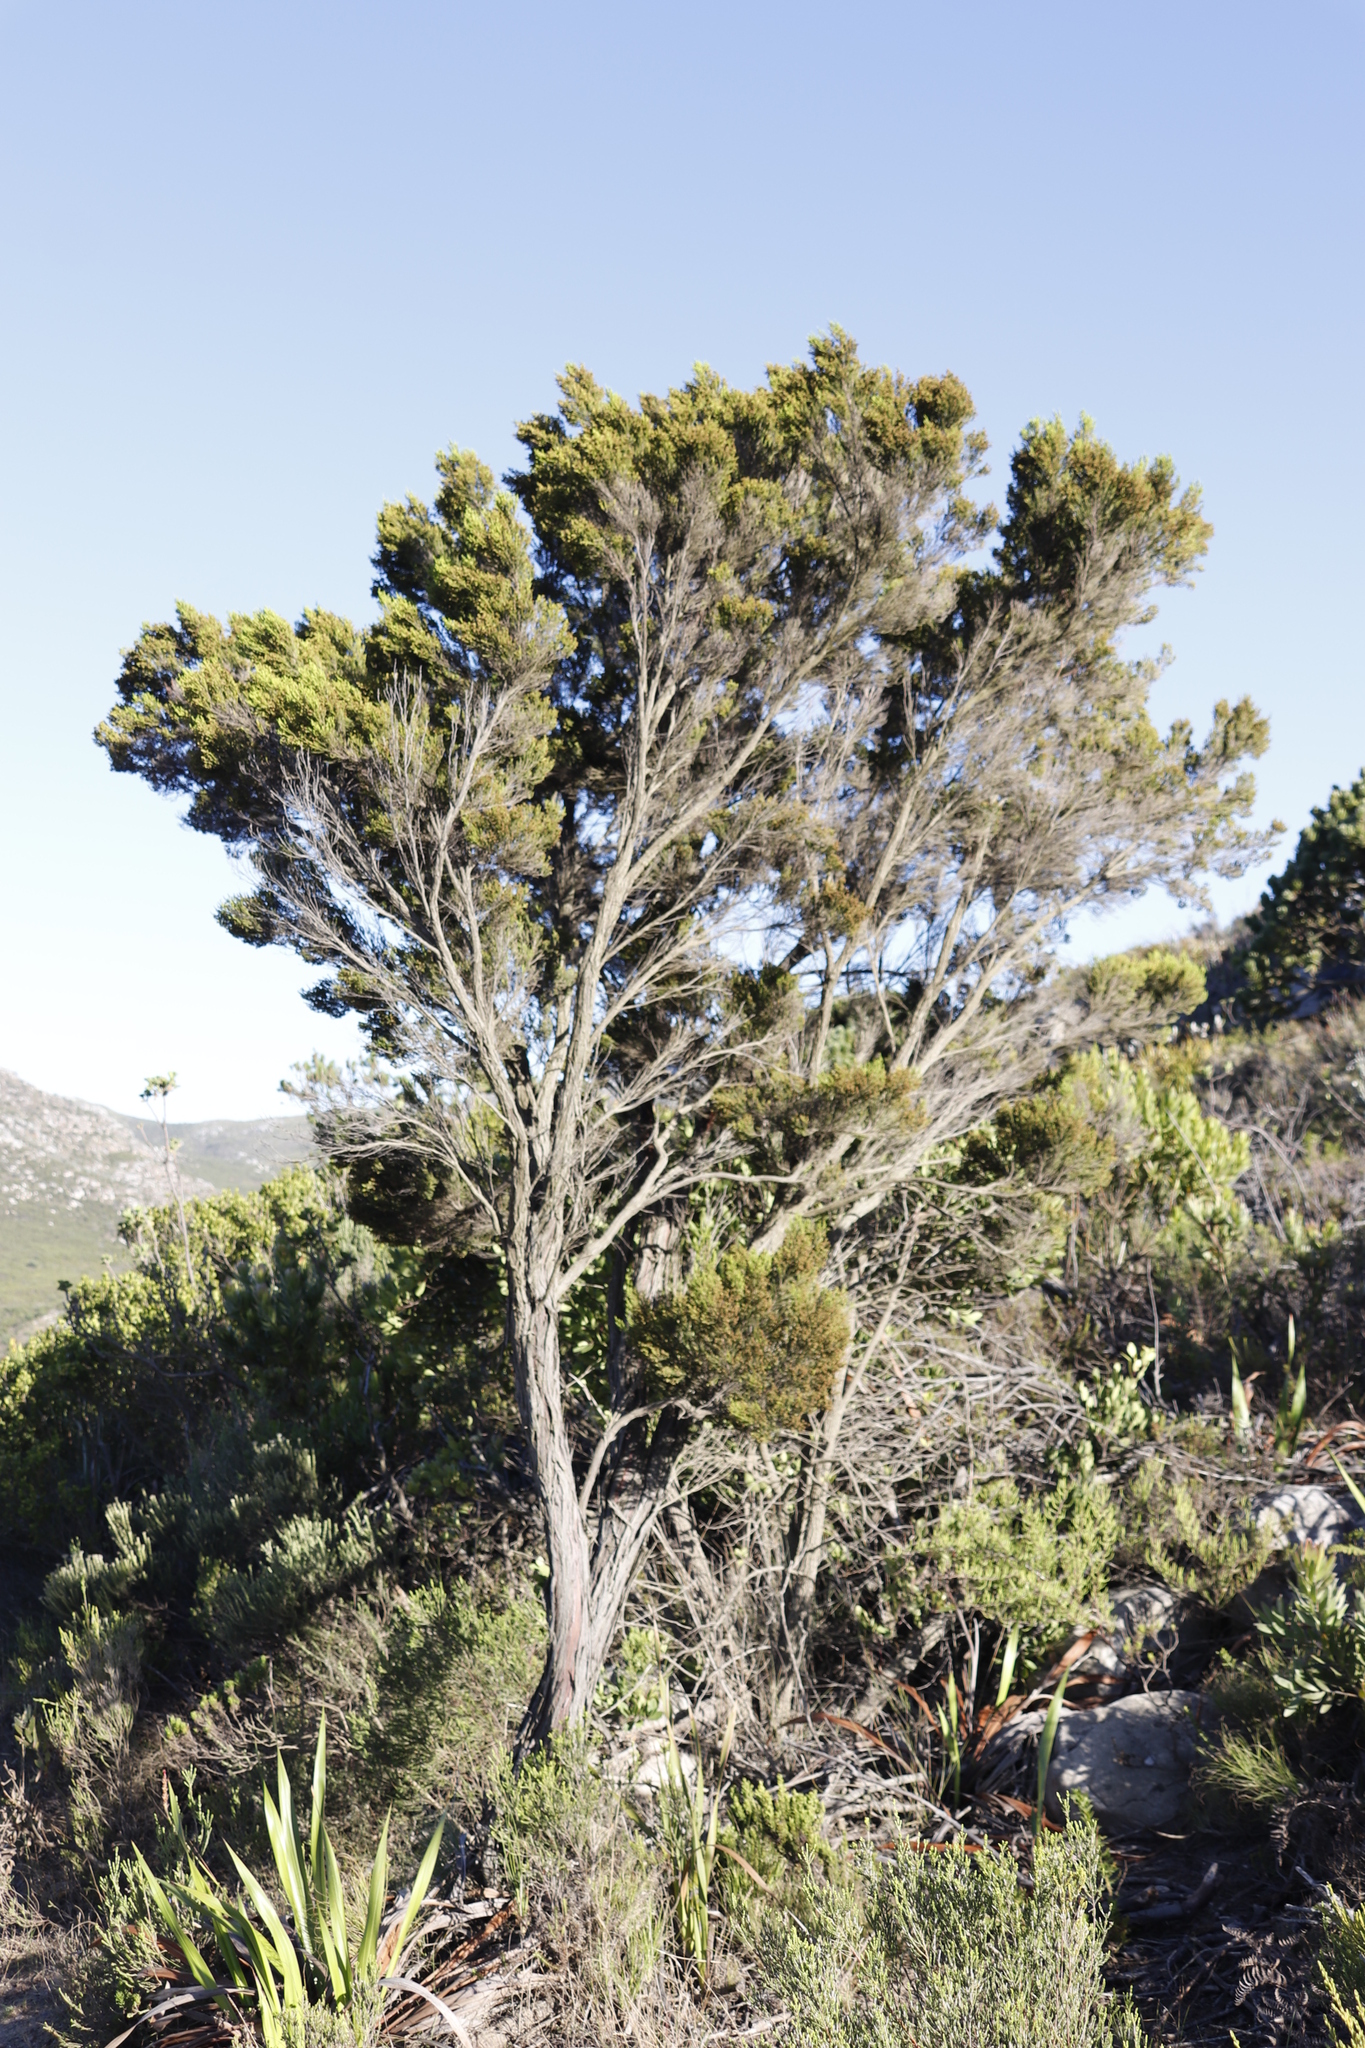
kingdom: Plantae
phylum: Tracheophyta
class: Magnoliopsida
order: Ericales
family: Ericaceae
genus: Erica
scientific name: Erica tristis
